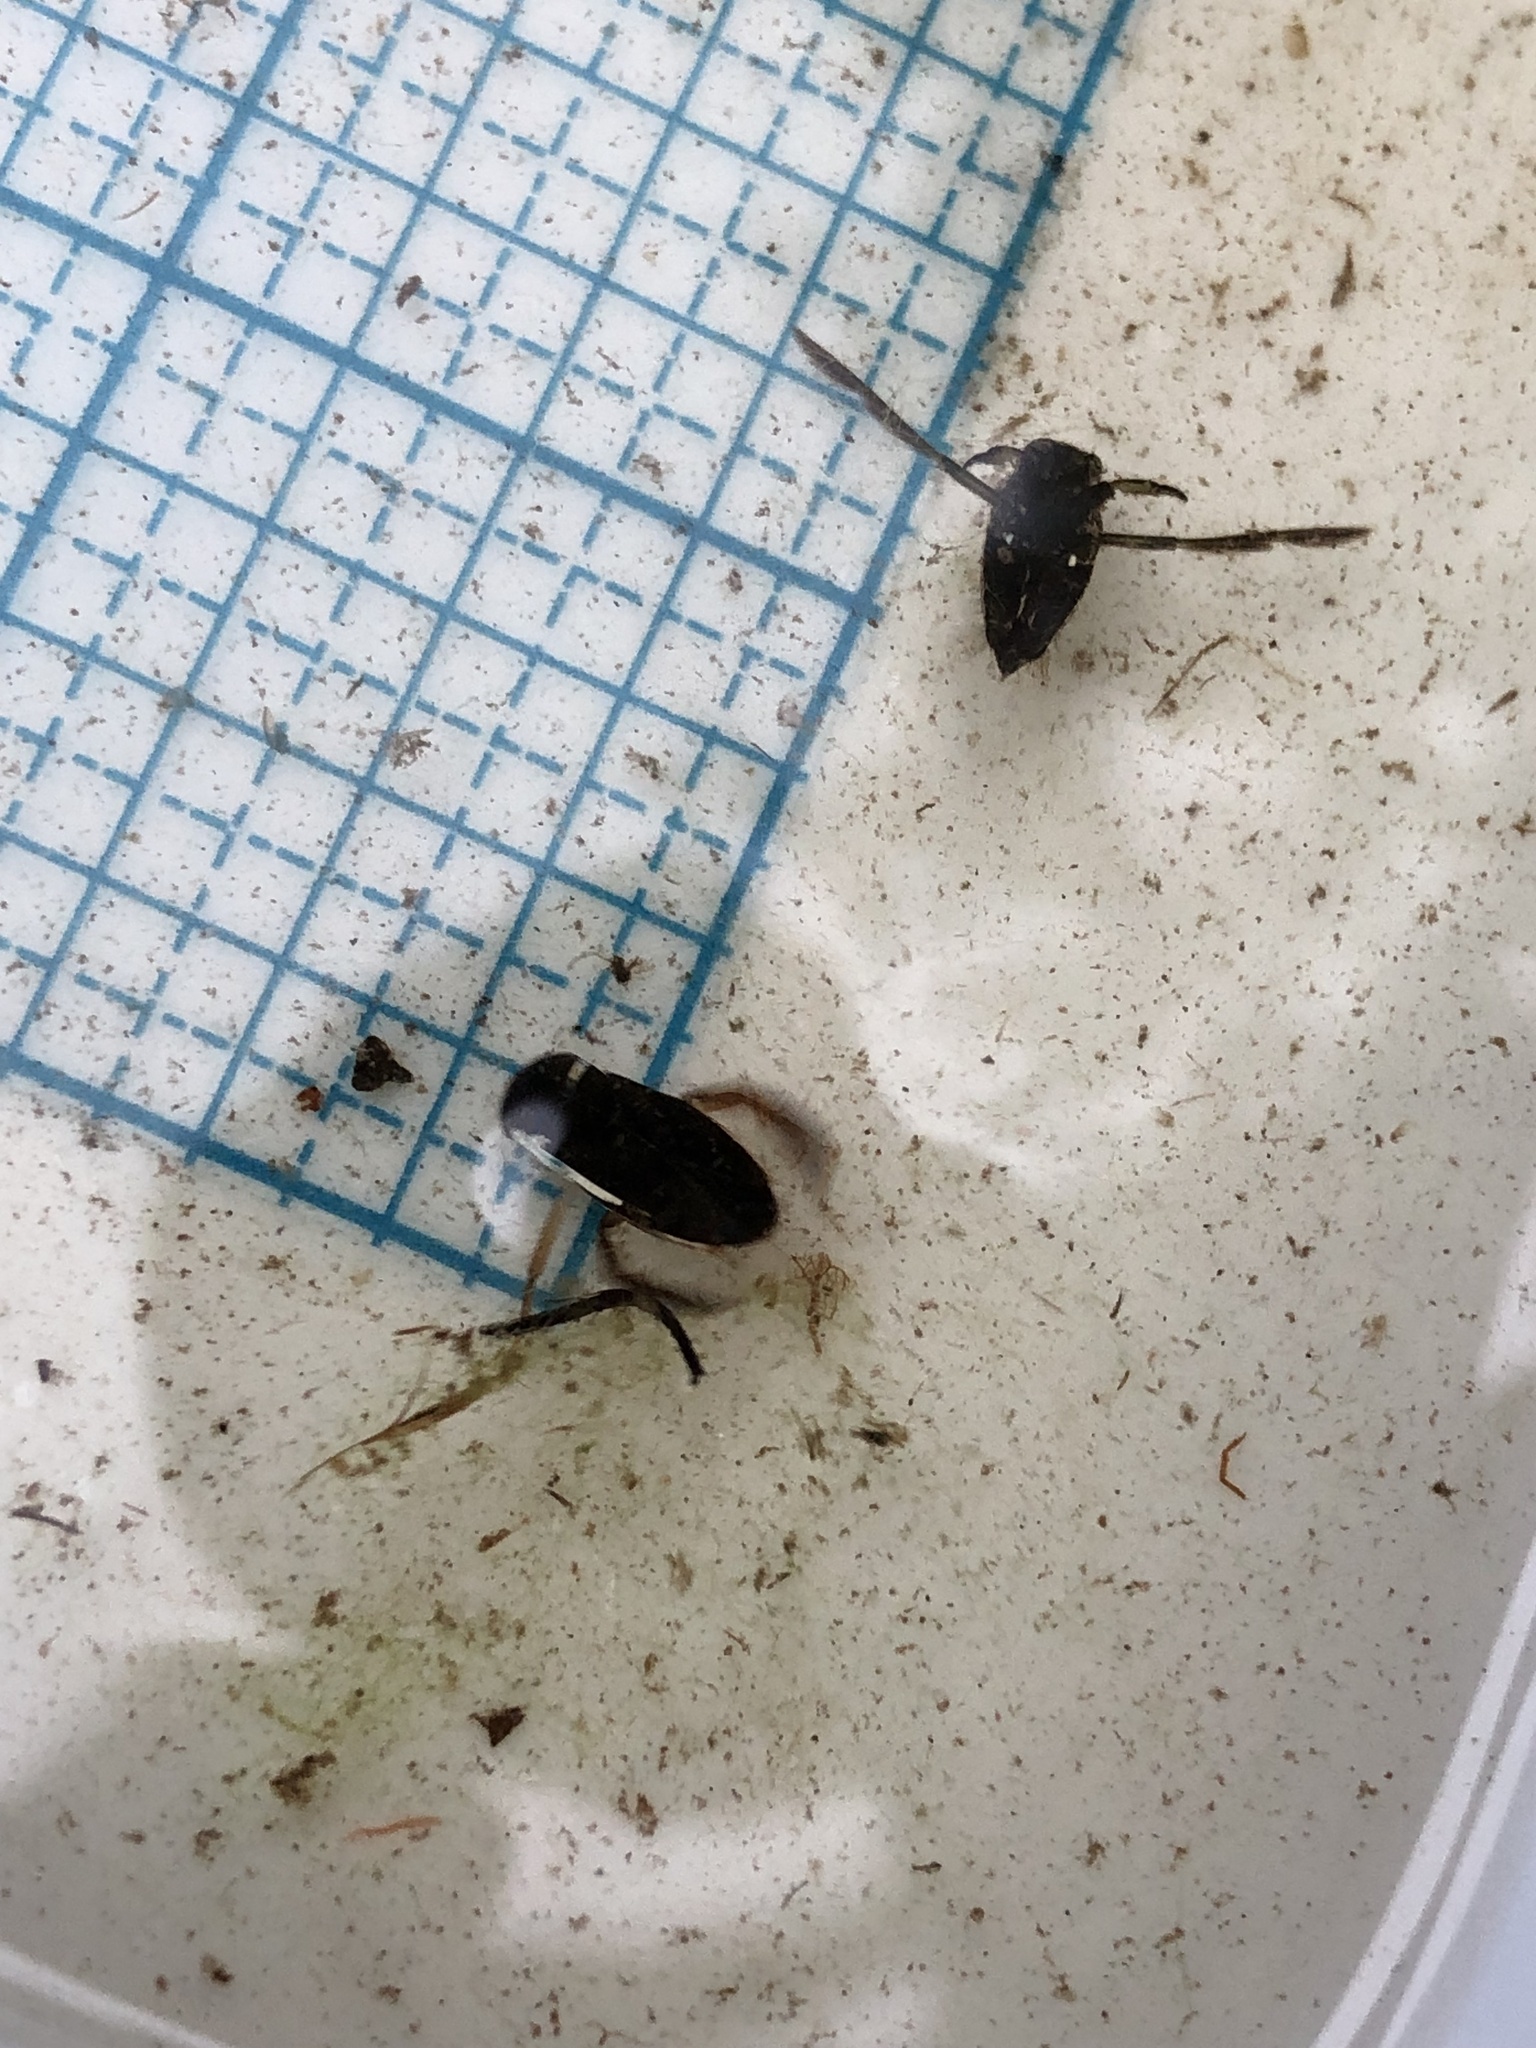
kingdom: Animalia
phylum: Arthropoda
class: Insecta
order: Hemiptera
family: Corixidae
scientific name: Corixidae
